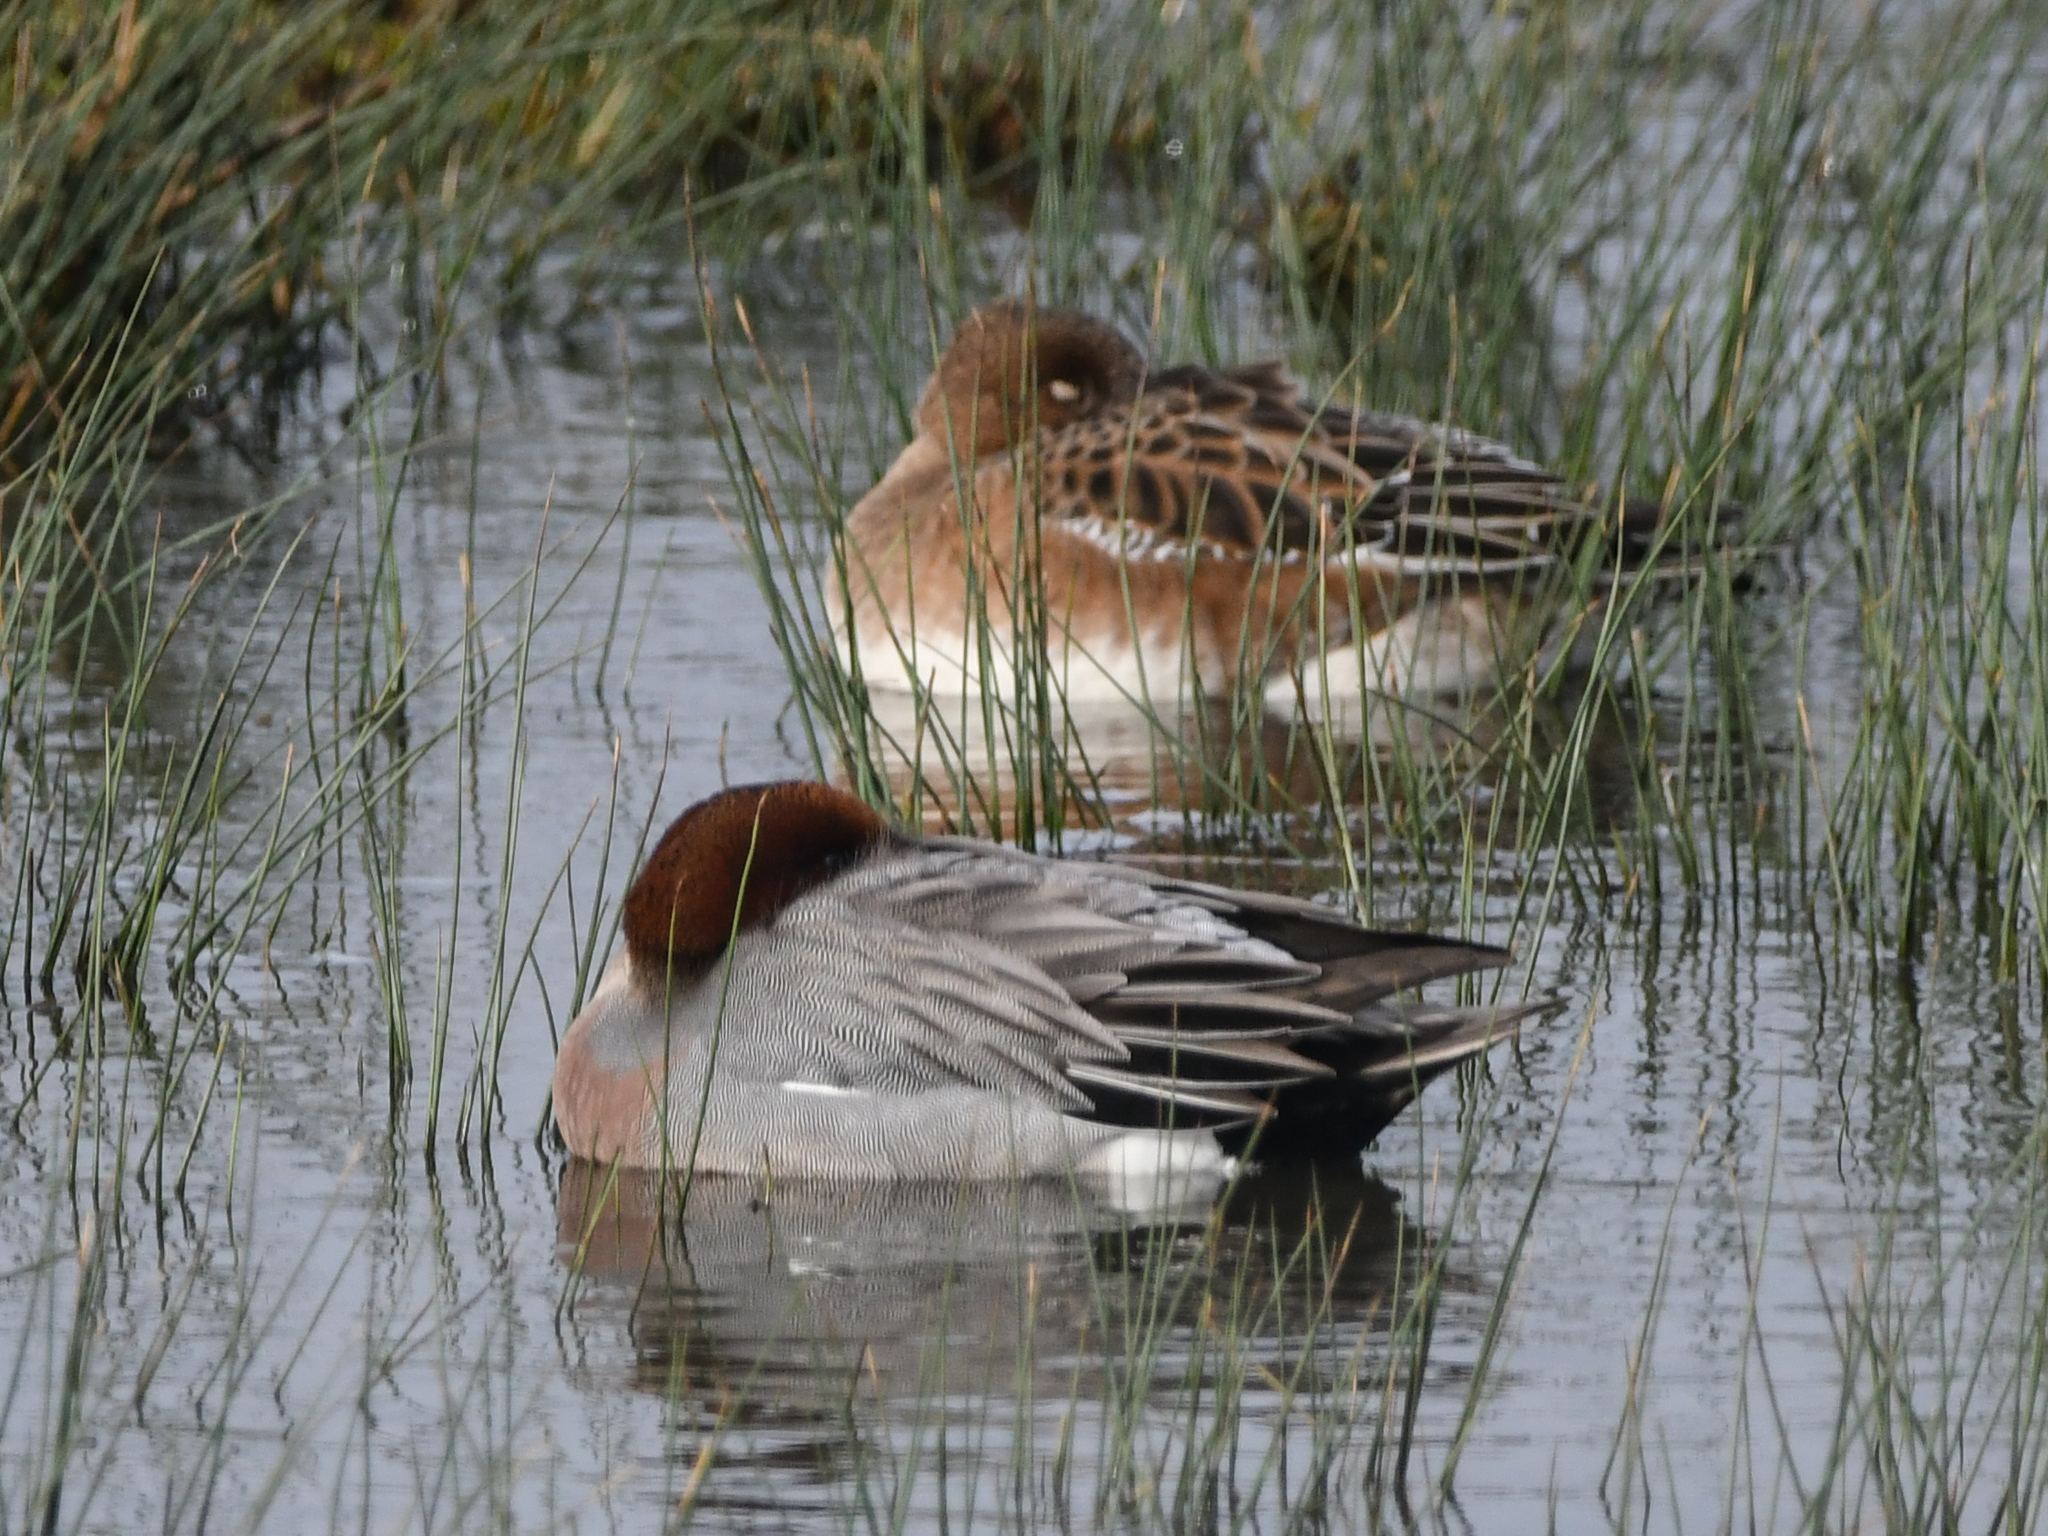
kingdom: Animalia
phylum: Chordata
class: Aves
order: Anseriformes
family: Anatidae
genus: Mareca
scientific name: Mareca penelope
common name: Eurasian wigeon
